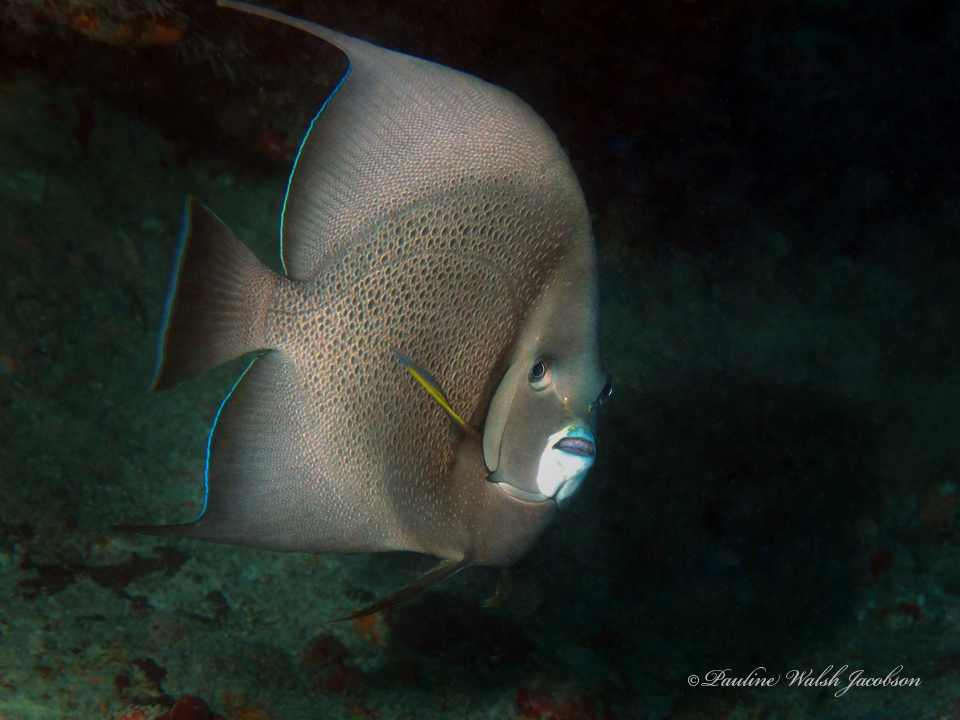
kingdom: Animalia
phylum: Chordata
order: Perciformes
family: Pomacanthidae
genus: Pomacanthus
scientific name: Pomacanthus arcuatus
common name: Gray angelfish
